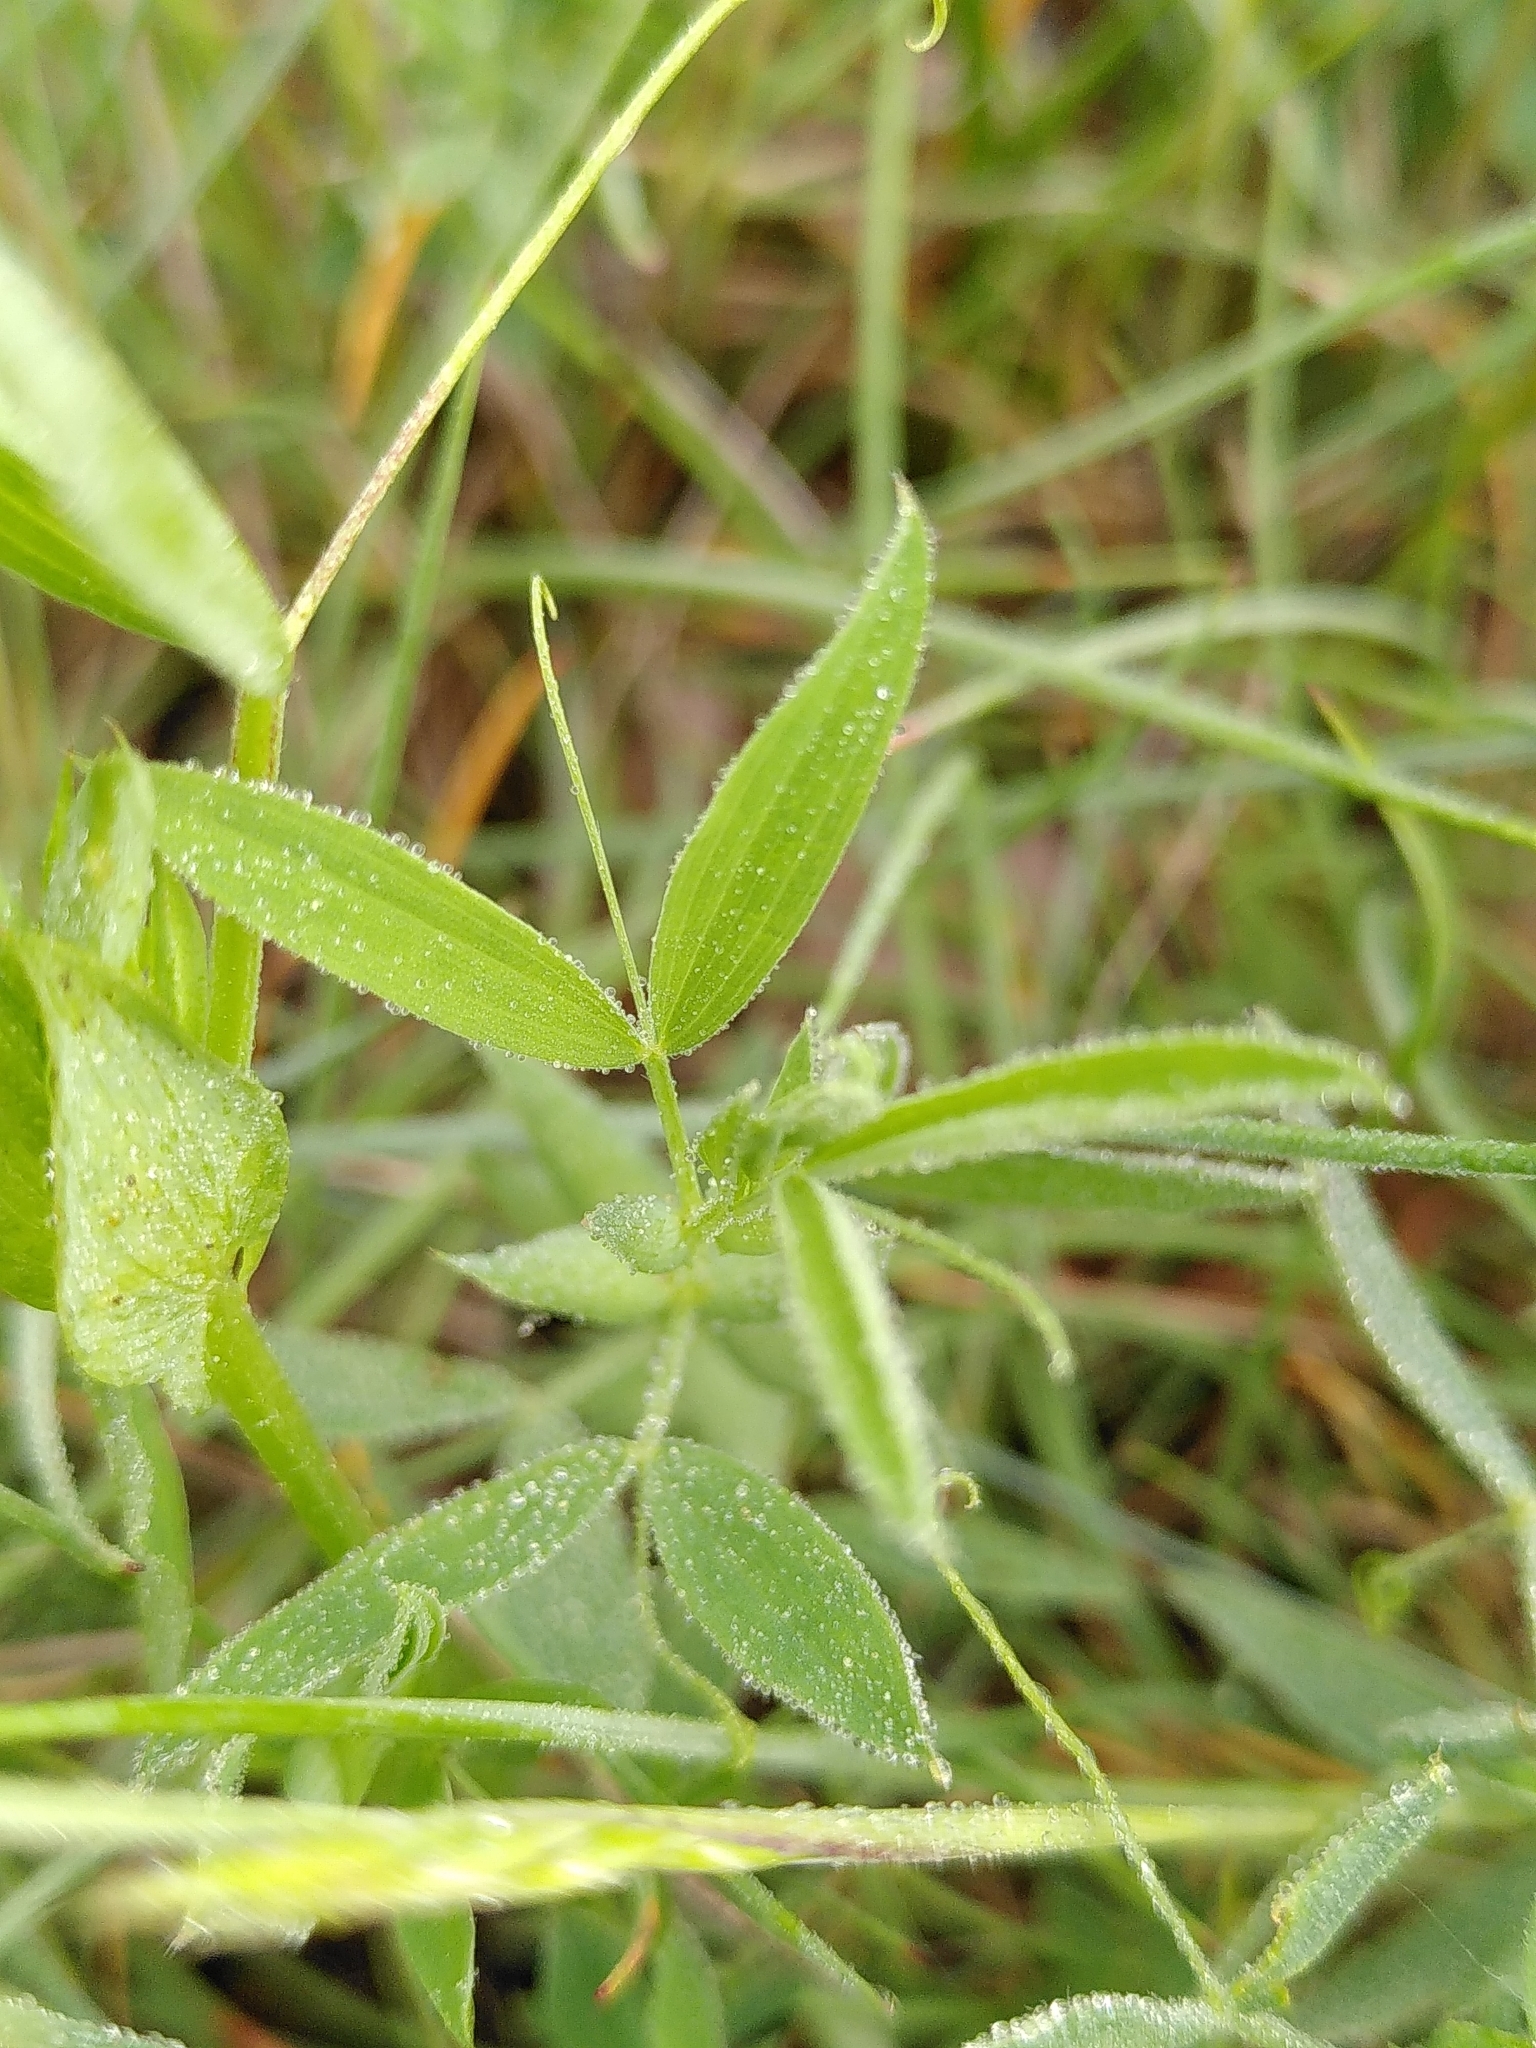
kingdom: Plantae
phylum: Tracheophyta
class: Magnoliopsida
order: Fabales
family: Fabaceae
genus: Lathyrus
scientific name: Lathyrus pratensis
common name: Meadow vetchling
